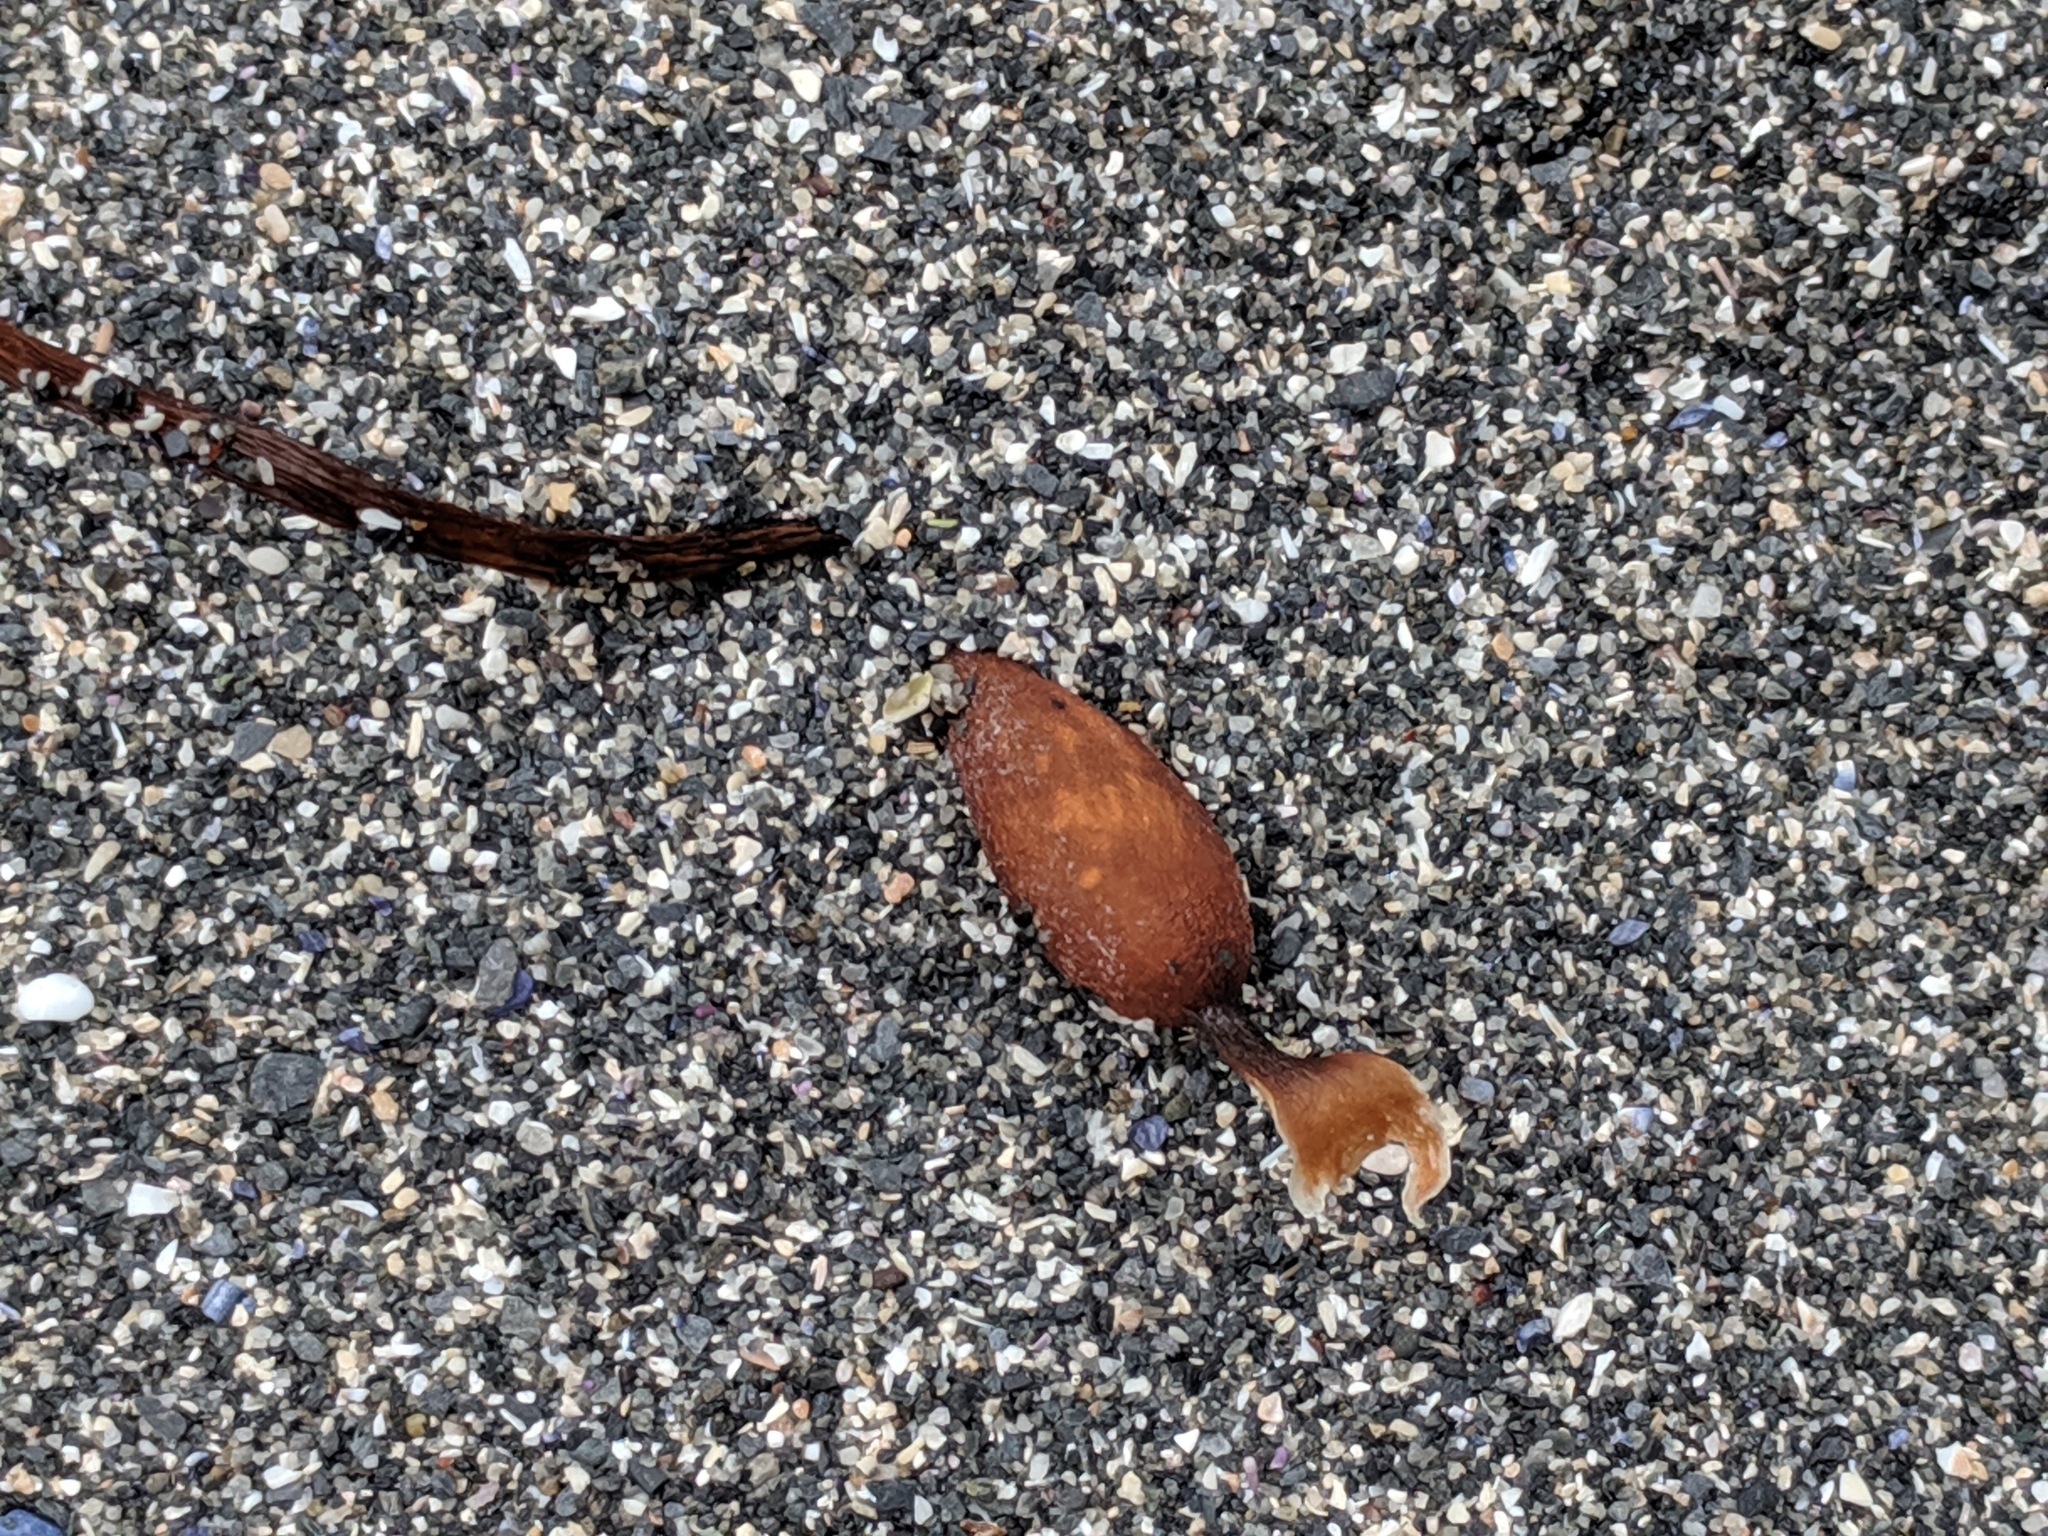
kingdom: Chromista
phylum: Ochrophyta
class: Phaeophyceae
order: Laminariales
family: Laminariaceae
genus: Macrocystis
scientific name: Macrocystis pyrifera
